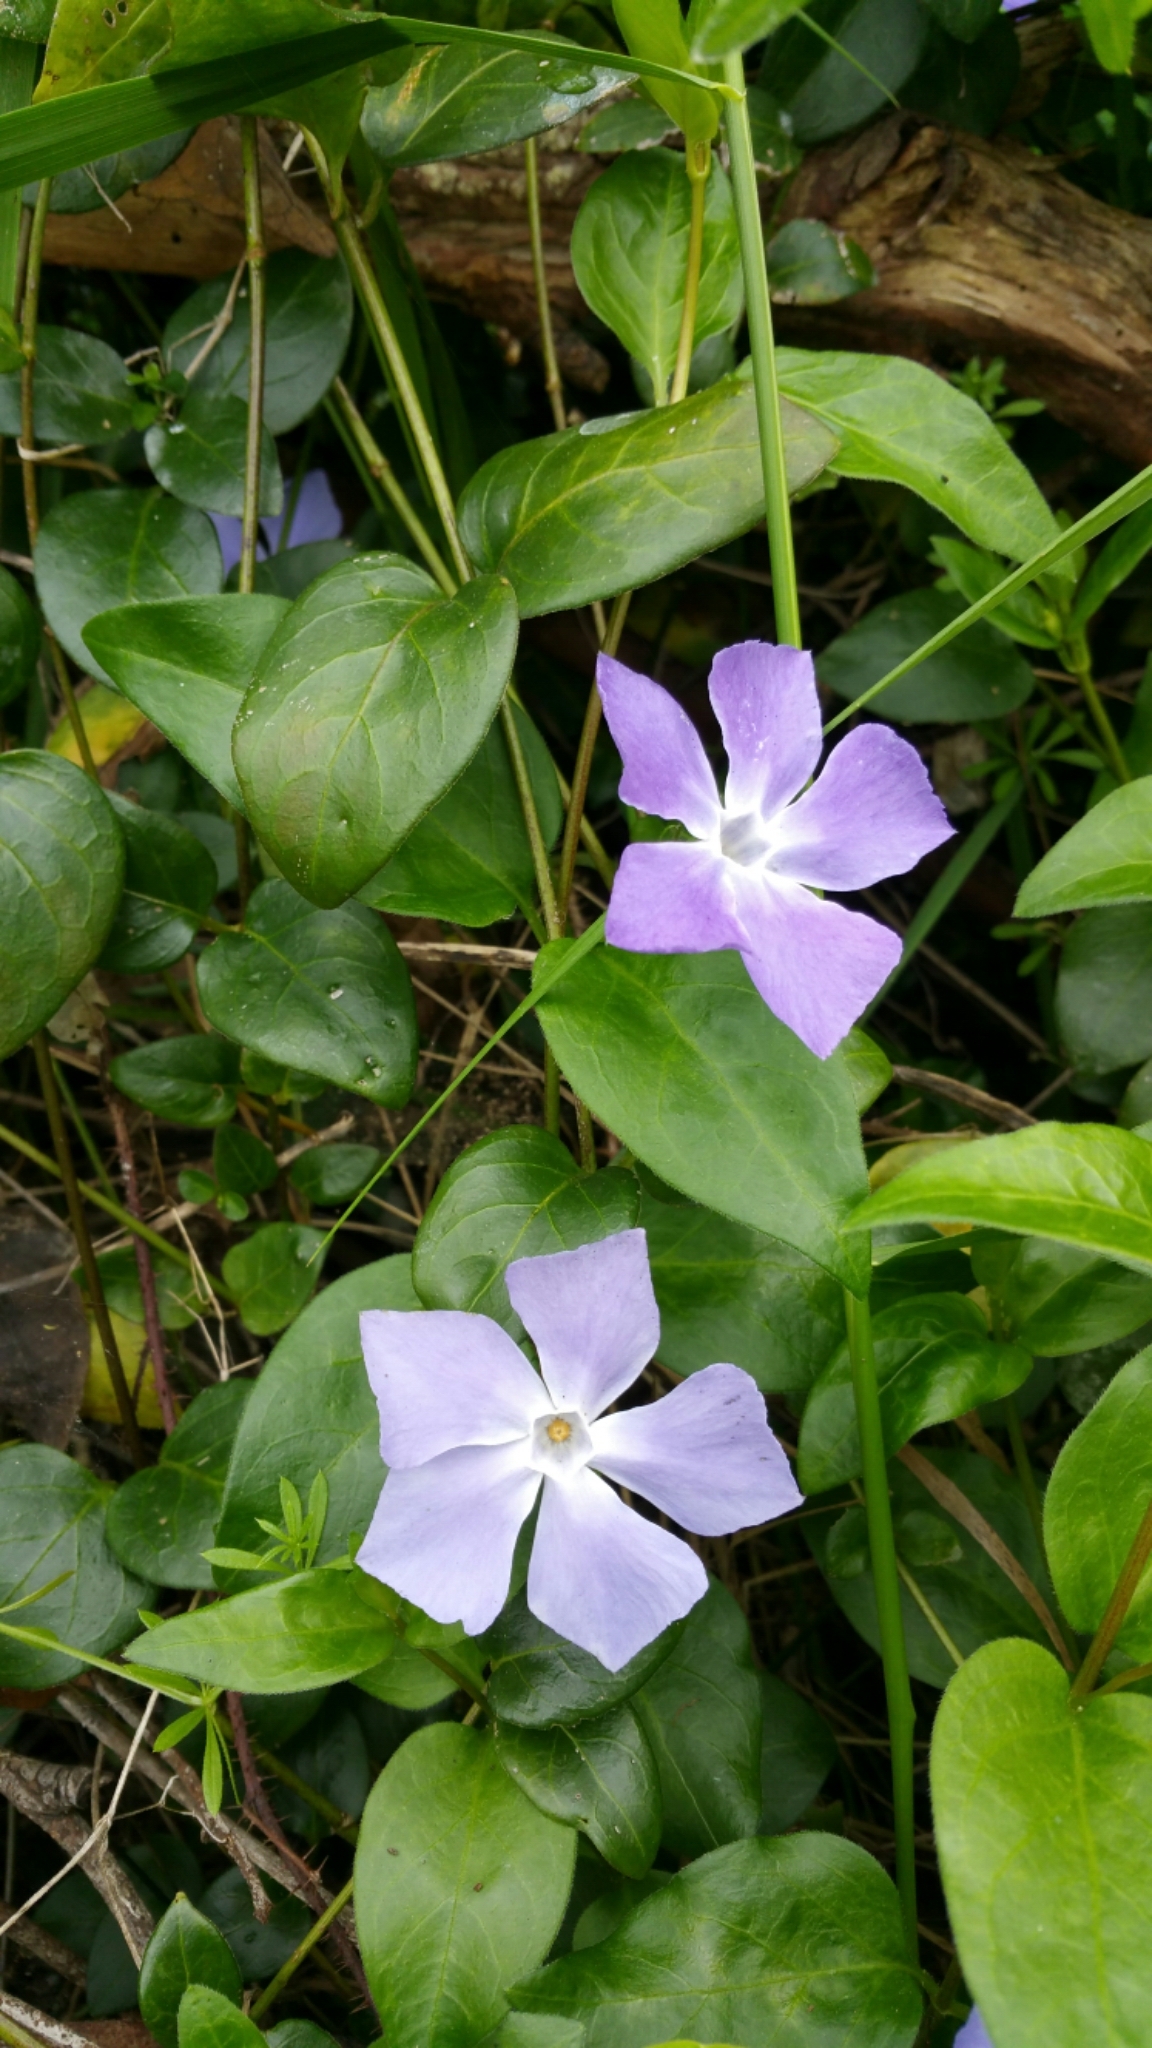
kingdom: Plantae
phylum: Tracheophyta
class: Magnoliopsida
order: Gentianales
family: Apocynaceae
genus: Vinca
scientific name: Vinca major
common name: Greater periwinkle
